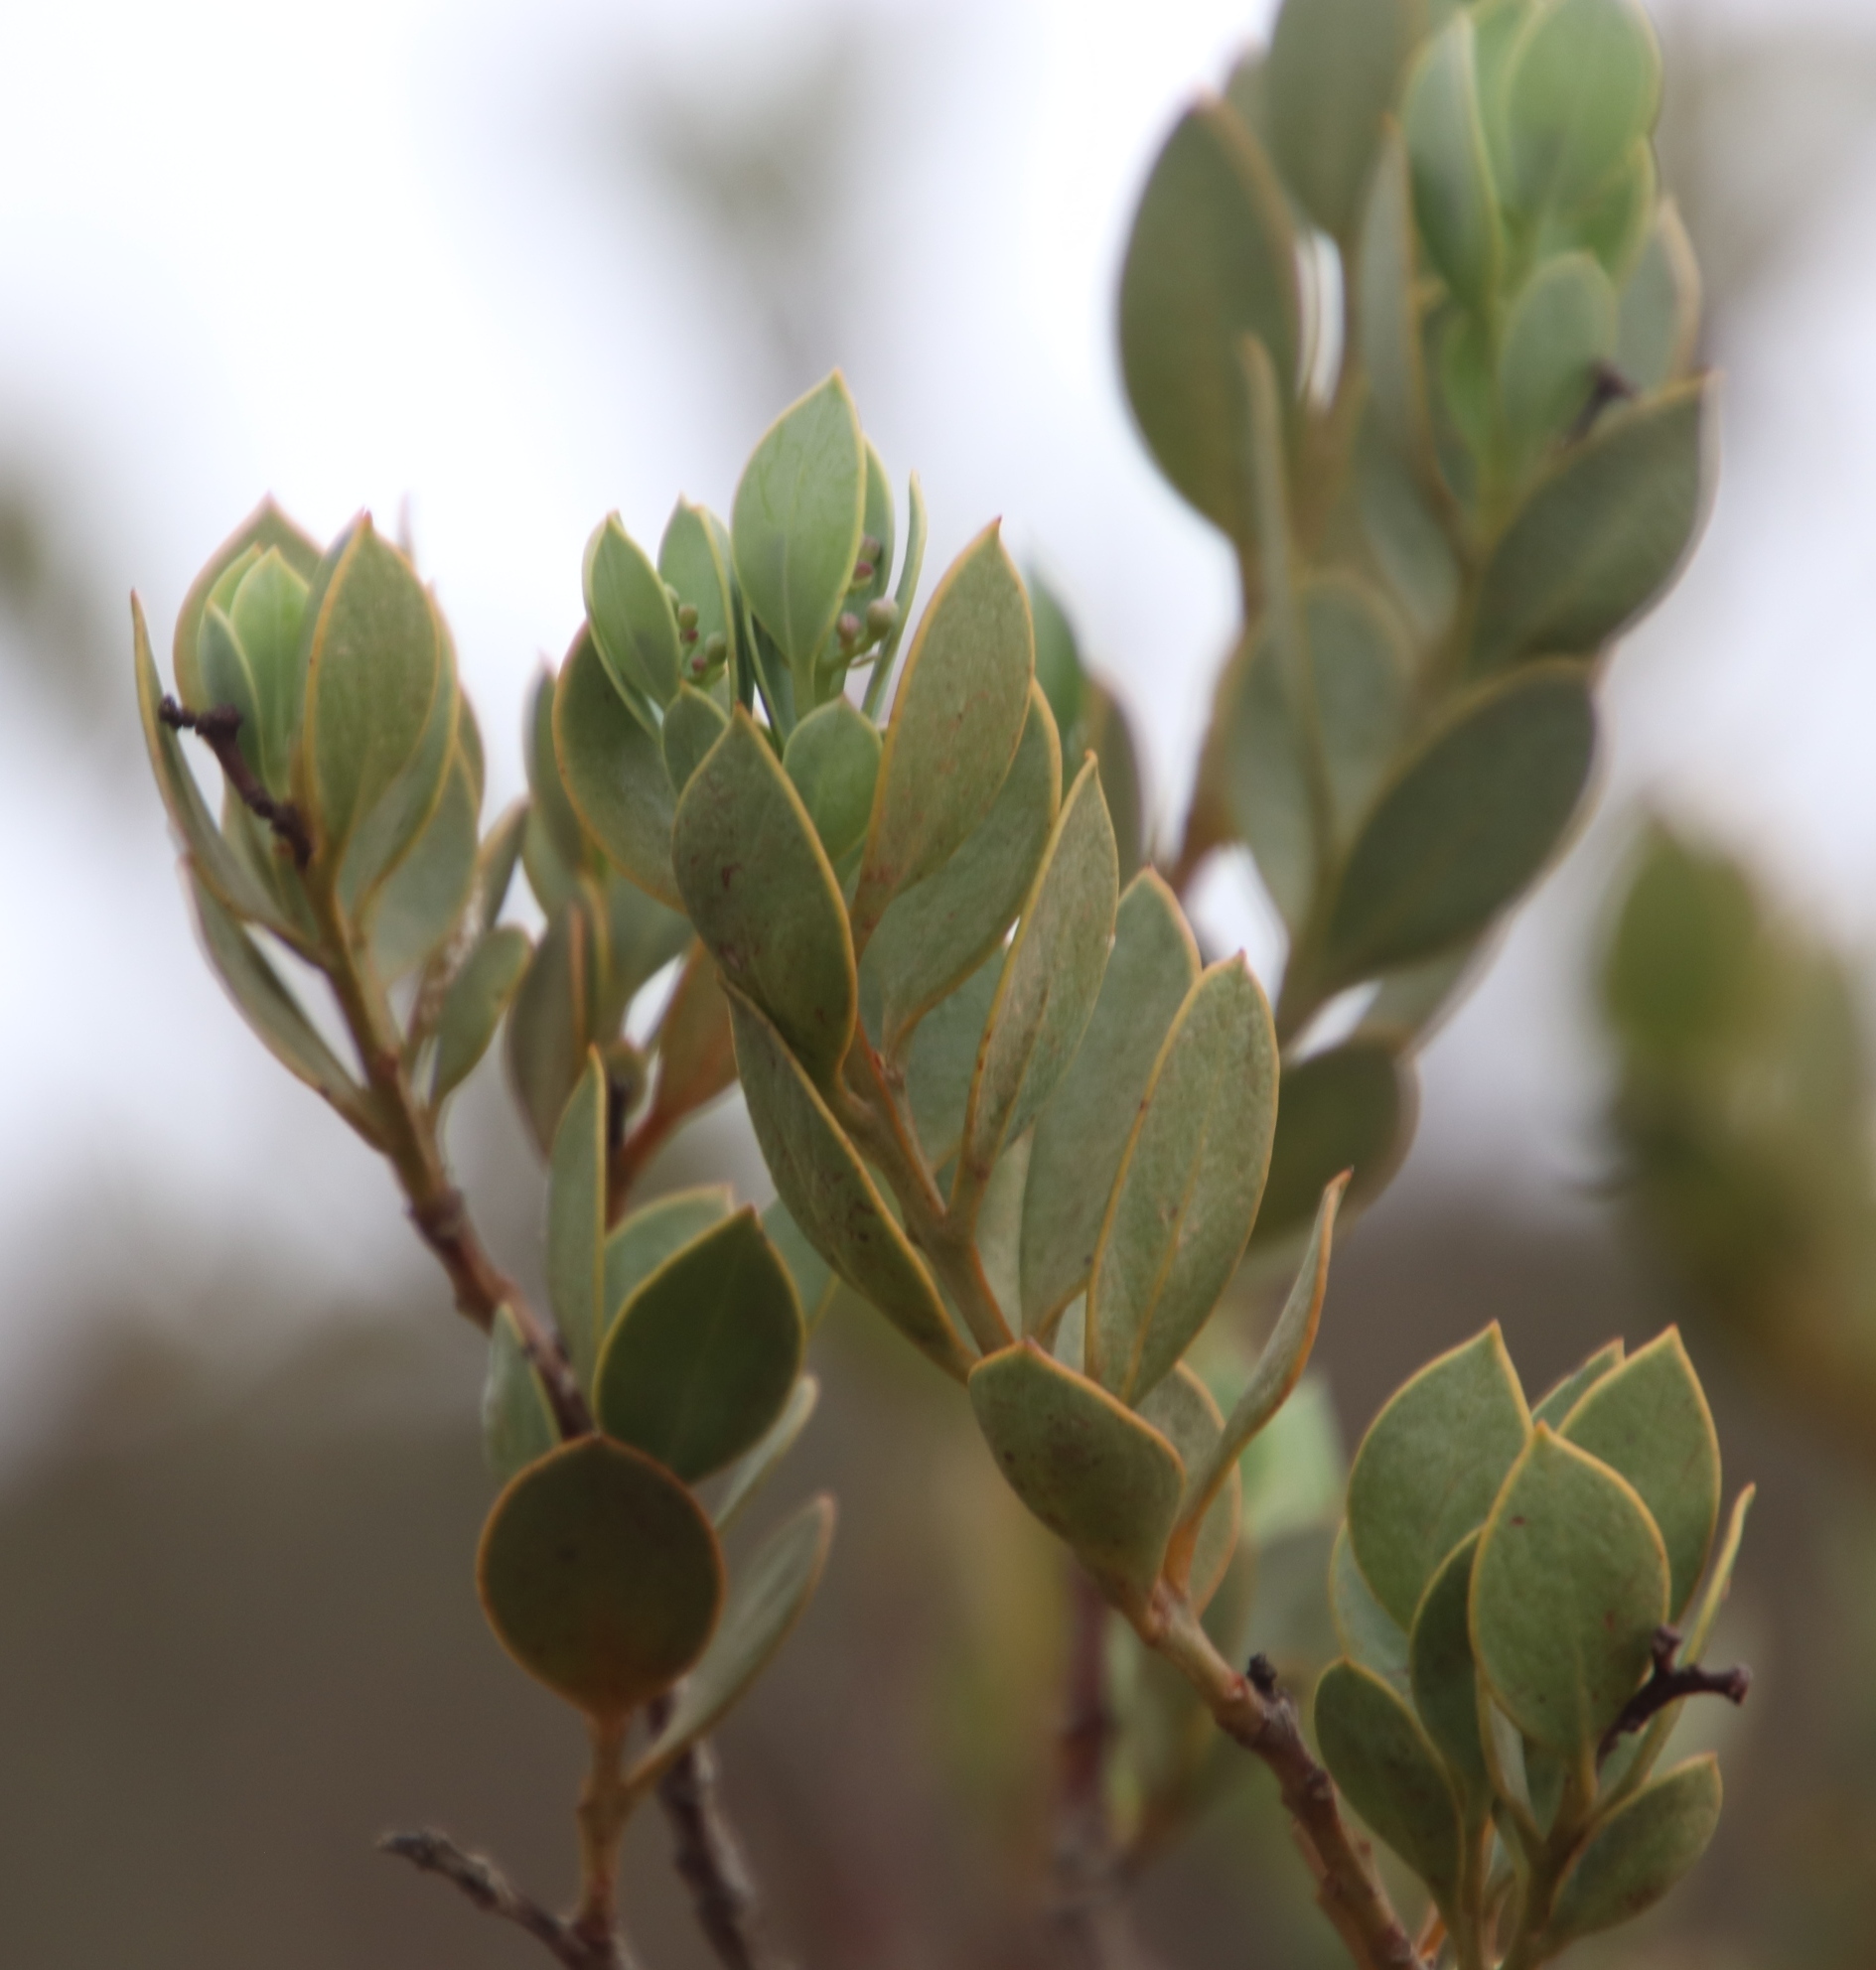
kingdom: Plantae
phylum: Tracheophyta
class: Magnoliopsida
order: Santalales
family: Santalaceae
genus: Osyris
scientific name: Osyris compressa
